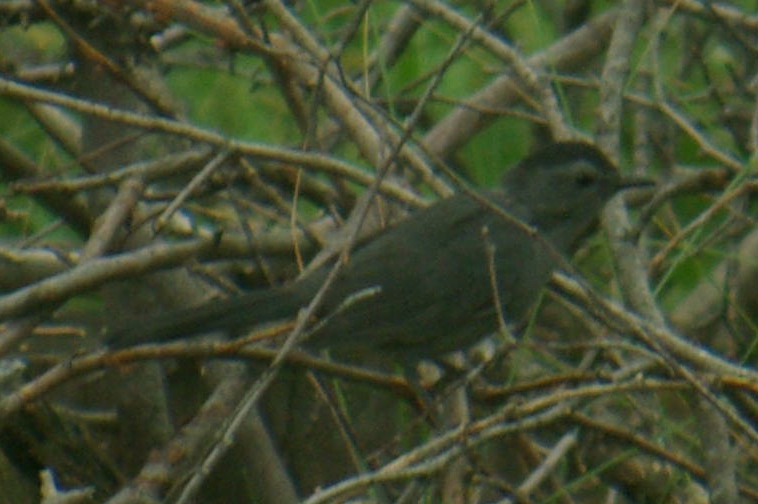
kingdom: Animalia
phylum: Chordata
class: Aves
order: Passeriformes
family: Mimidae
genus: Dumetella
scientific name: Dumetella carolinensis
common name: Gray catbird
